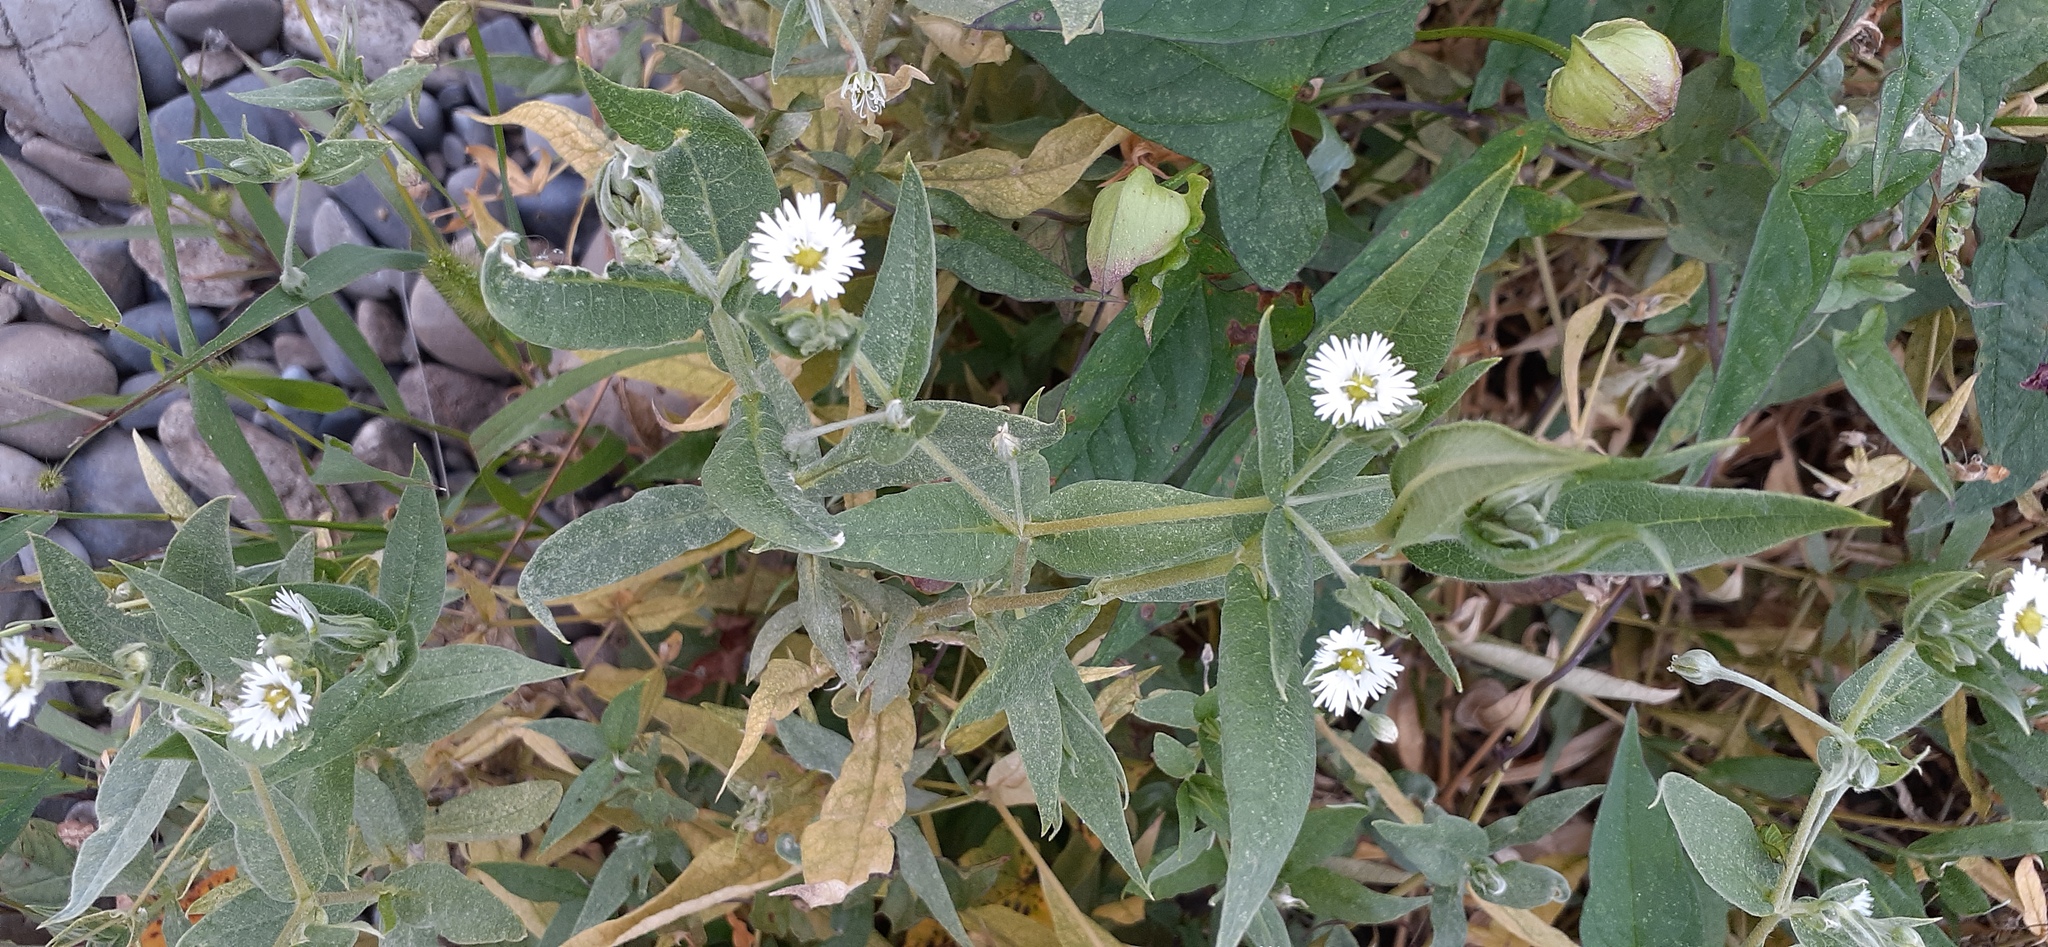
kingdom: Plantae
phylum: Tracheophyta
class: Magnoliopsida
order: Caryophyllales
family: Caryophyllaceae
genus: Stellaria
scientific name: Stellaria radians
